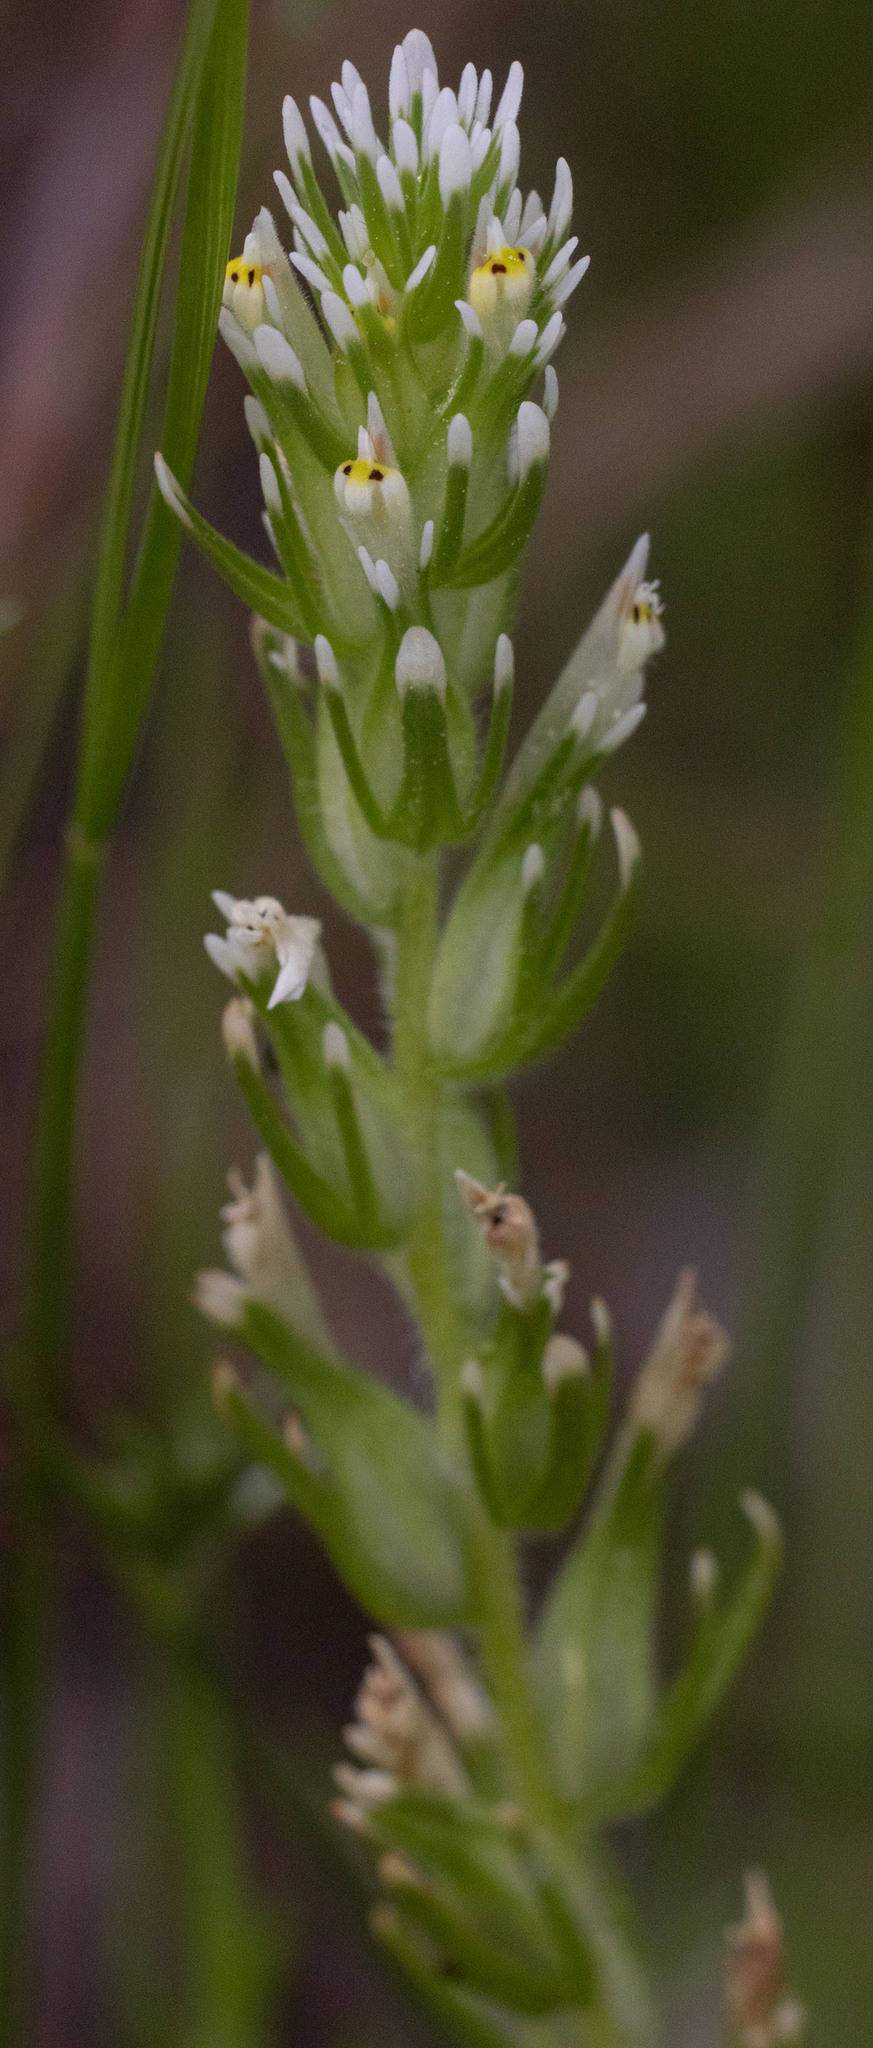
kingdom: Plantae
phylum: Tracheophyta
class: Magnoliopsida
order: Lamiales
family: Orobanchaceae
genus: Castilleja
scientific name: Castilleja attenuata
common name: Valley tassels
